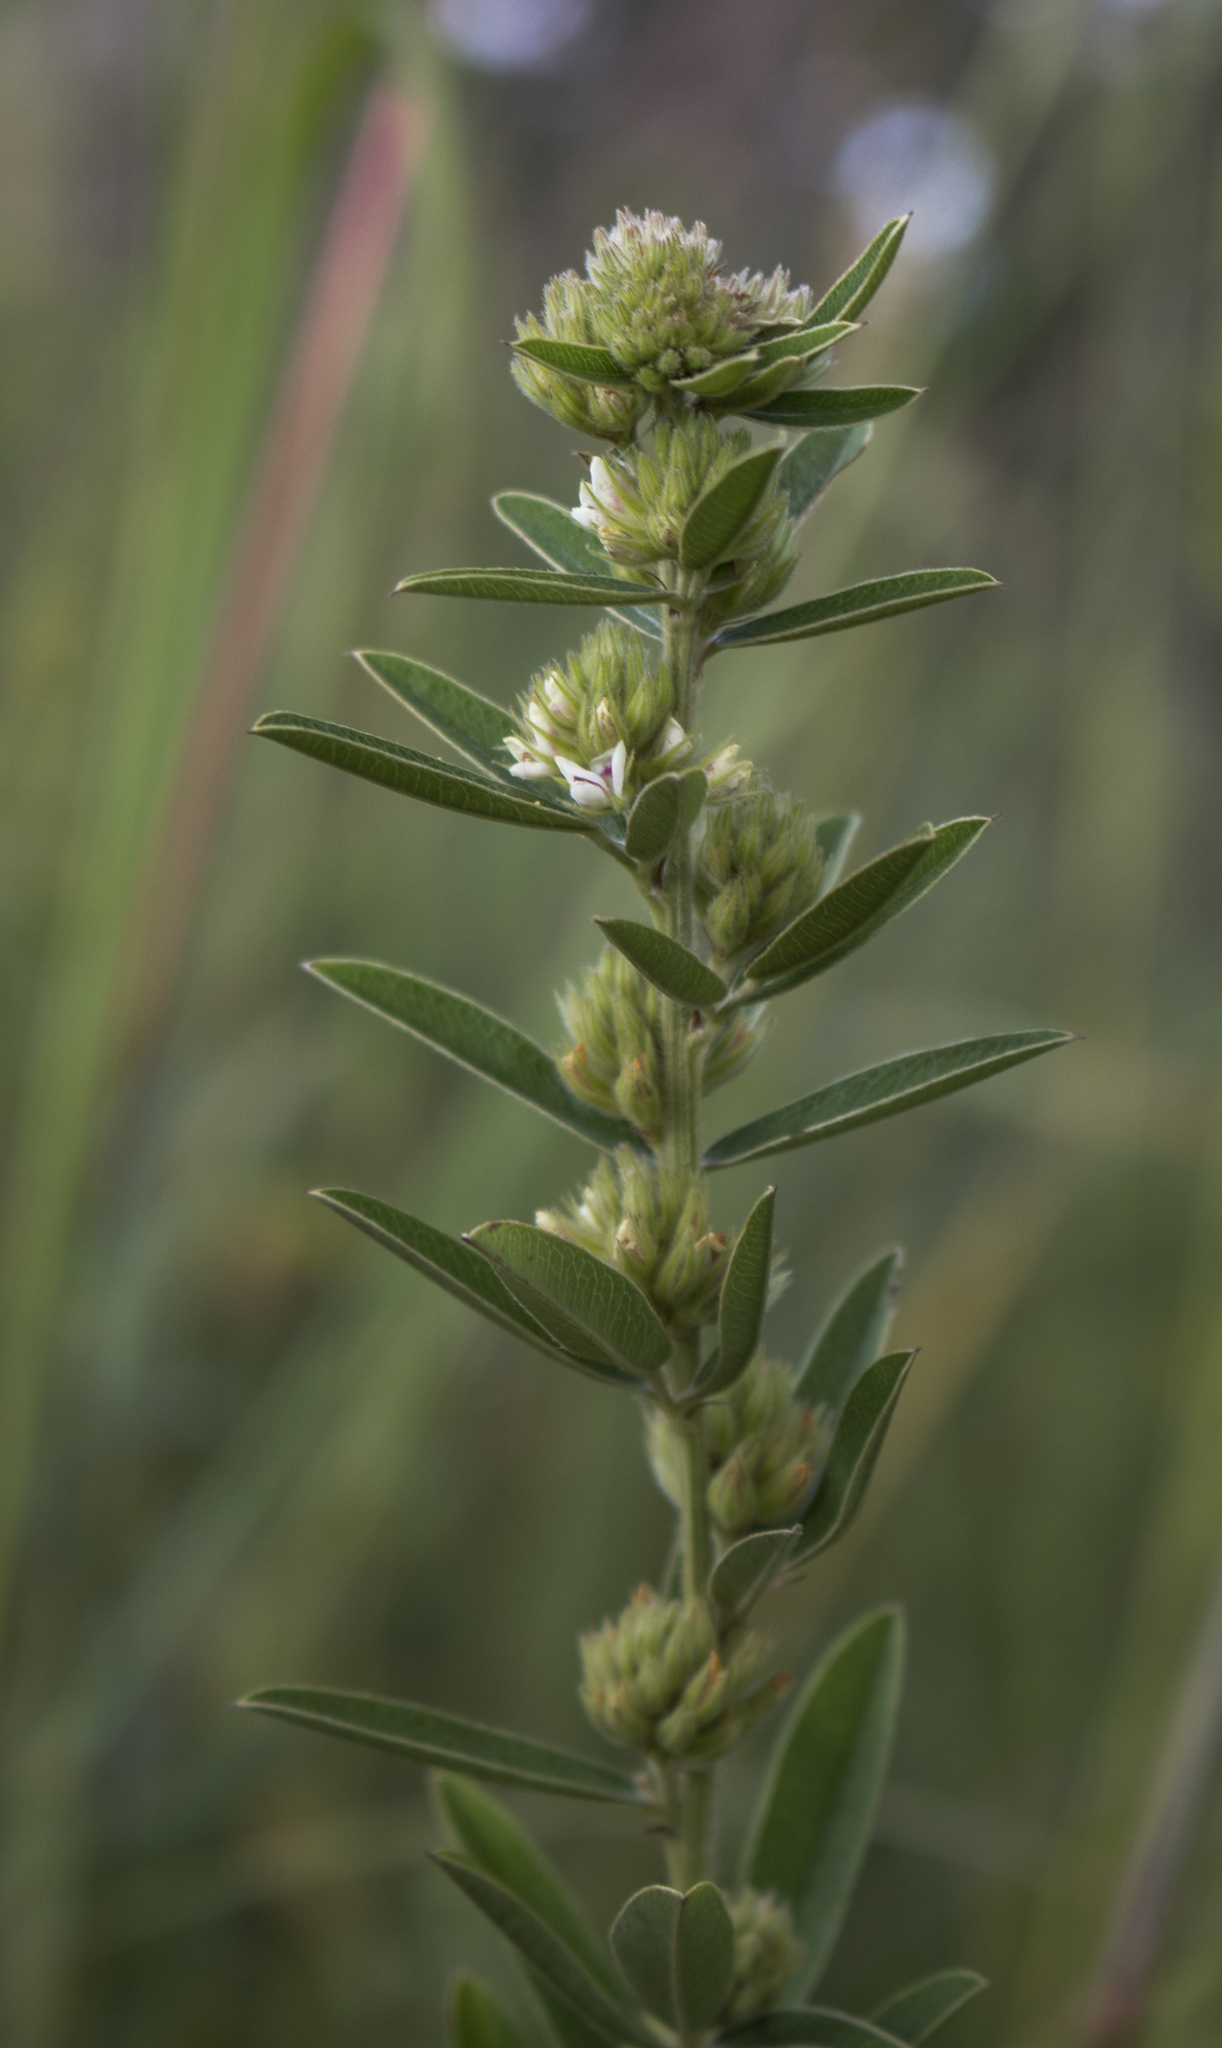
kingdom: Plantae
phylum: Tracheophyta
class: Magnoliopsida
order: Fabales
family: Fabaceae
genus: Lespedeza
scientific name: Lespedeza capitata
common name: Dusty clover
